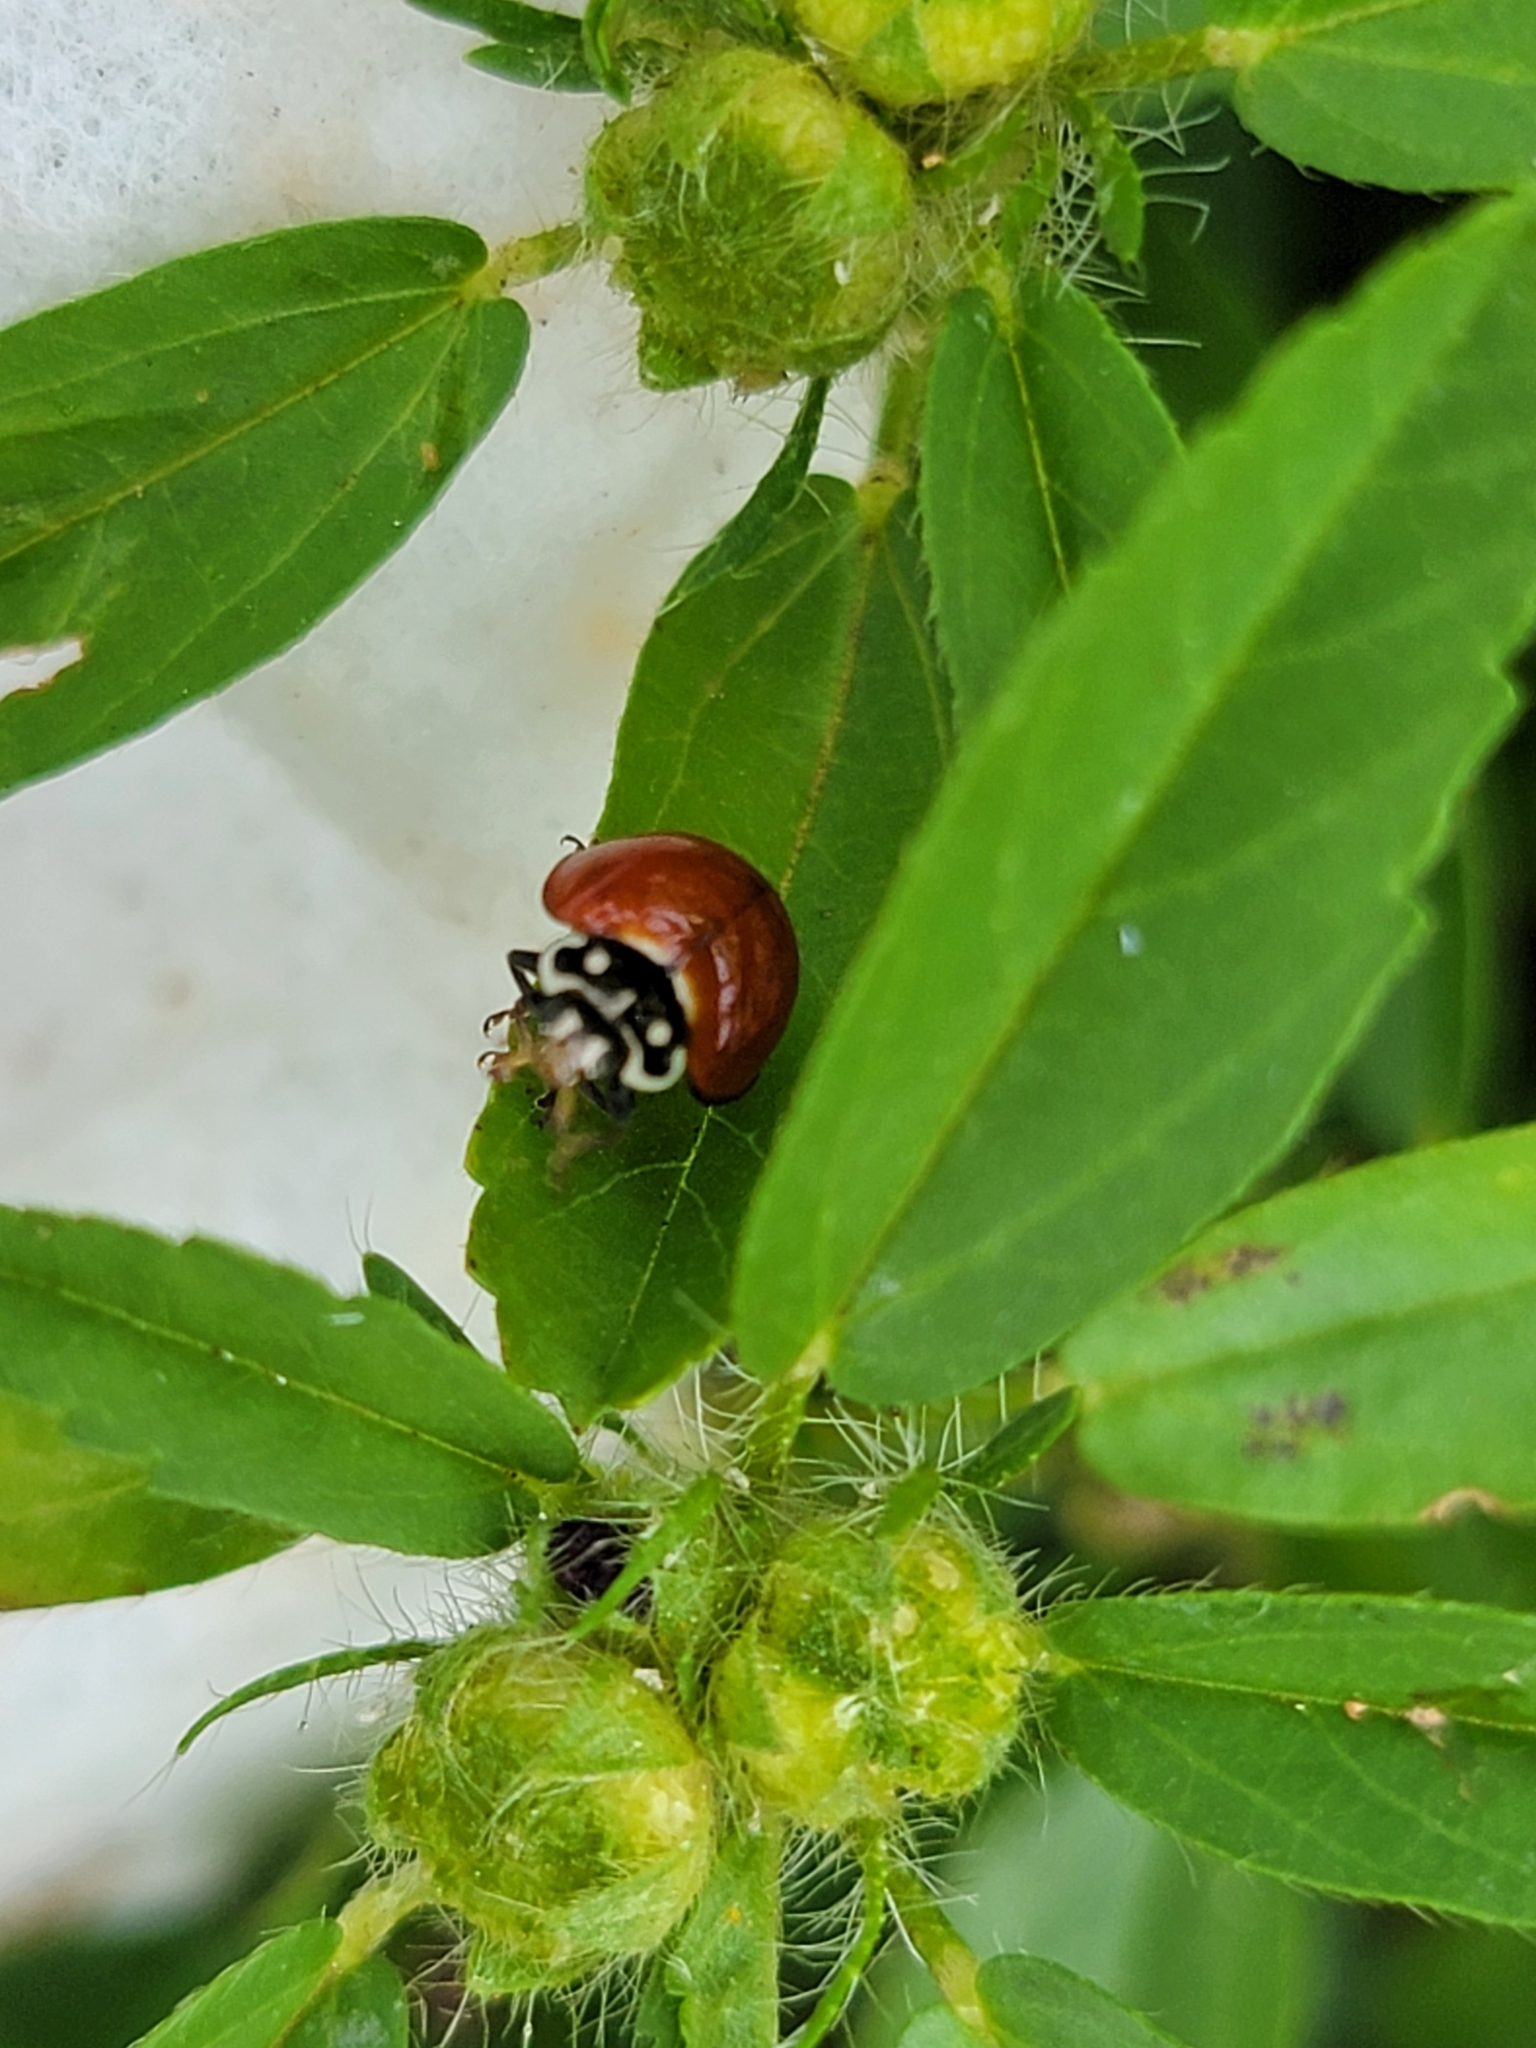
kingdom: Animalia
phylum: Arthropoda
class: Insecta
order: Coleoptera
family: Coccinellidae
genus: Cycloneda
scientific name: Cycloneda sanguinea
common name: Ladybird beetle
